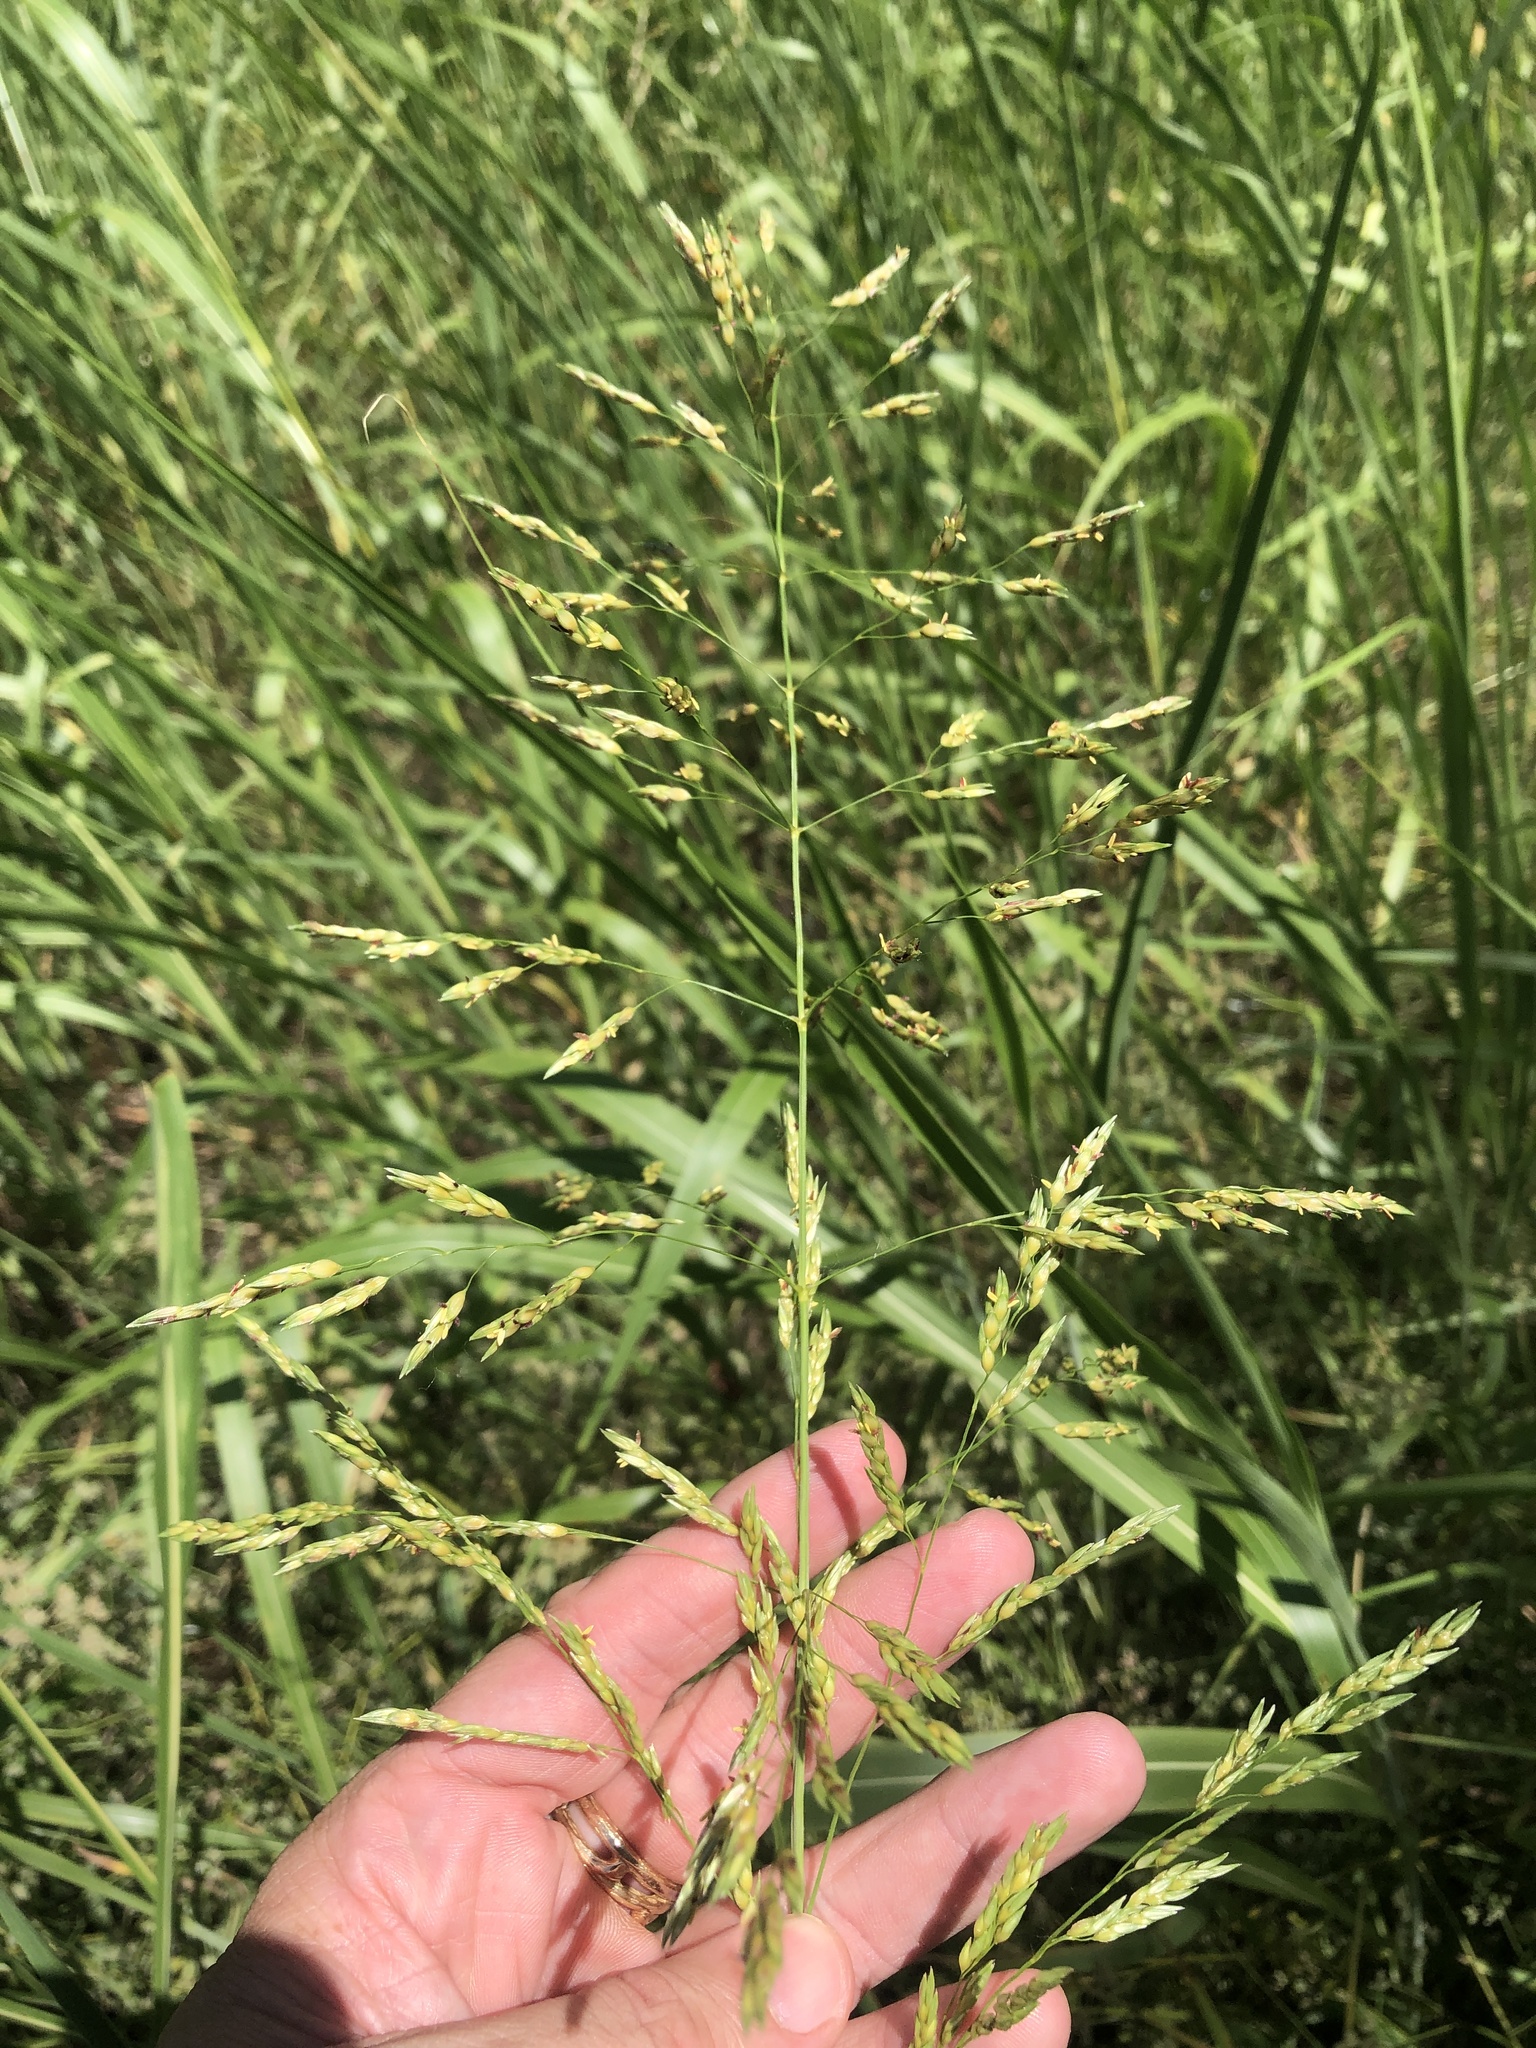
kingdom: Plantae
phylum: Tracheophyta
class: Liliopsida
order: Poales
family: Poaceae
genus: Sorghum
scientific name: Sorghum halepense
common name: Johnson-grass
